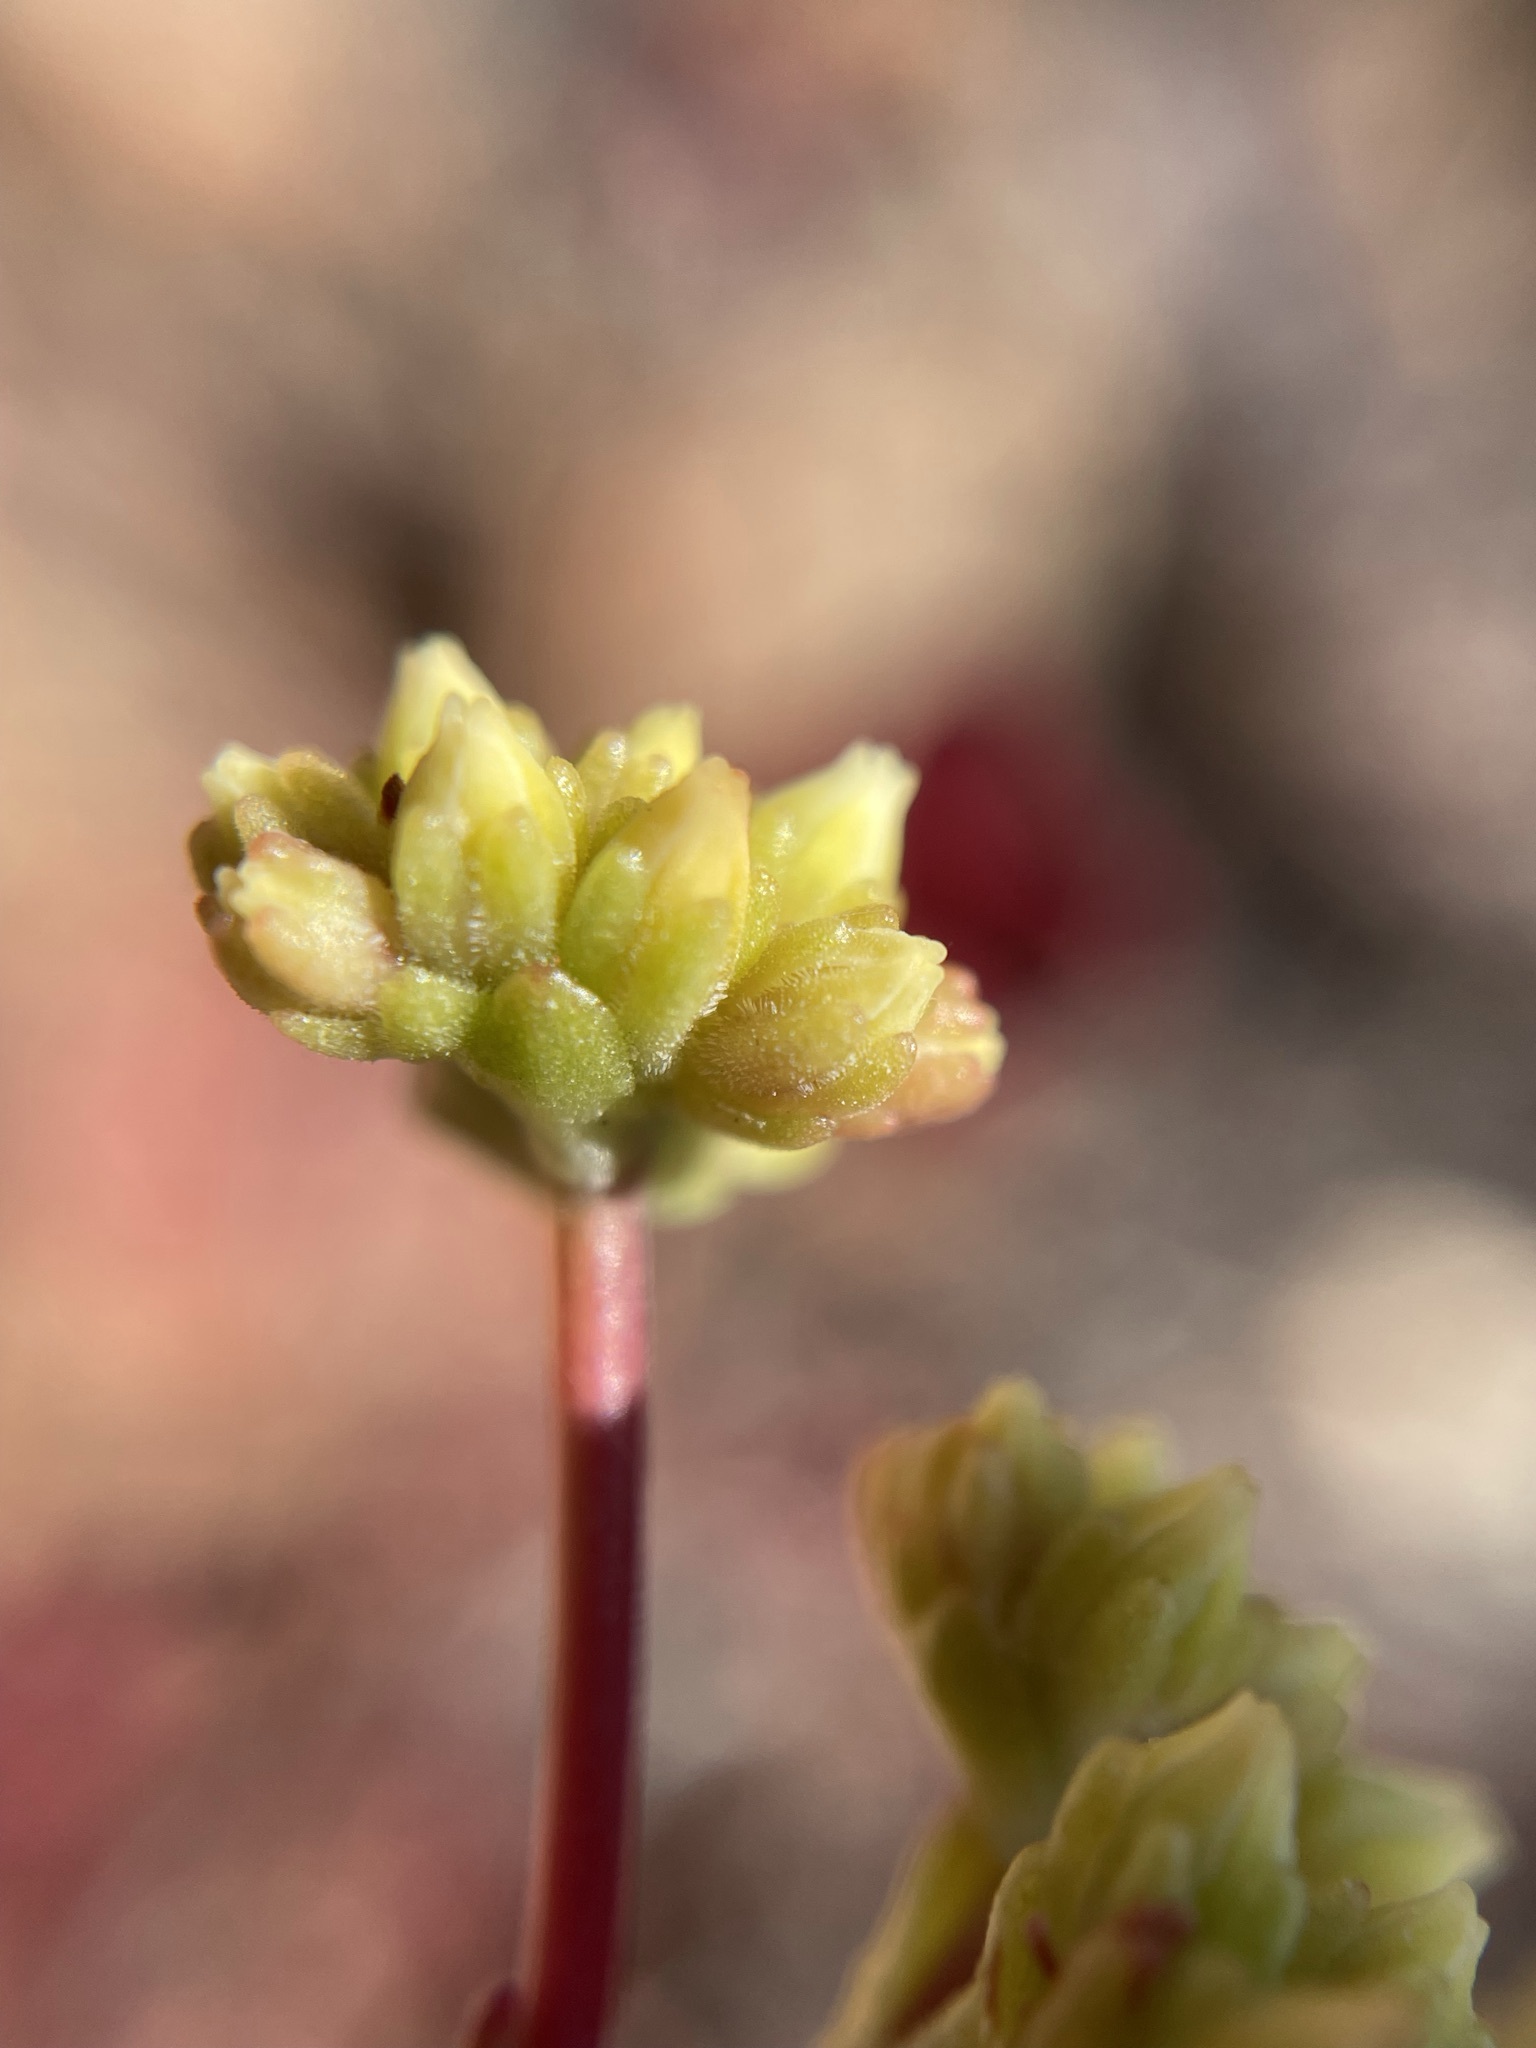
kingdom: Plantae
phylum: Tracheophyta
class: Magnoliopsida
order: Saxifragales
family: Crassulaceae
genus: Crassula
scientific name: Crassula atropurpurea
